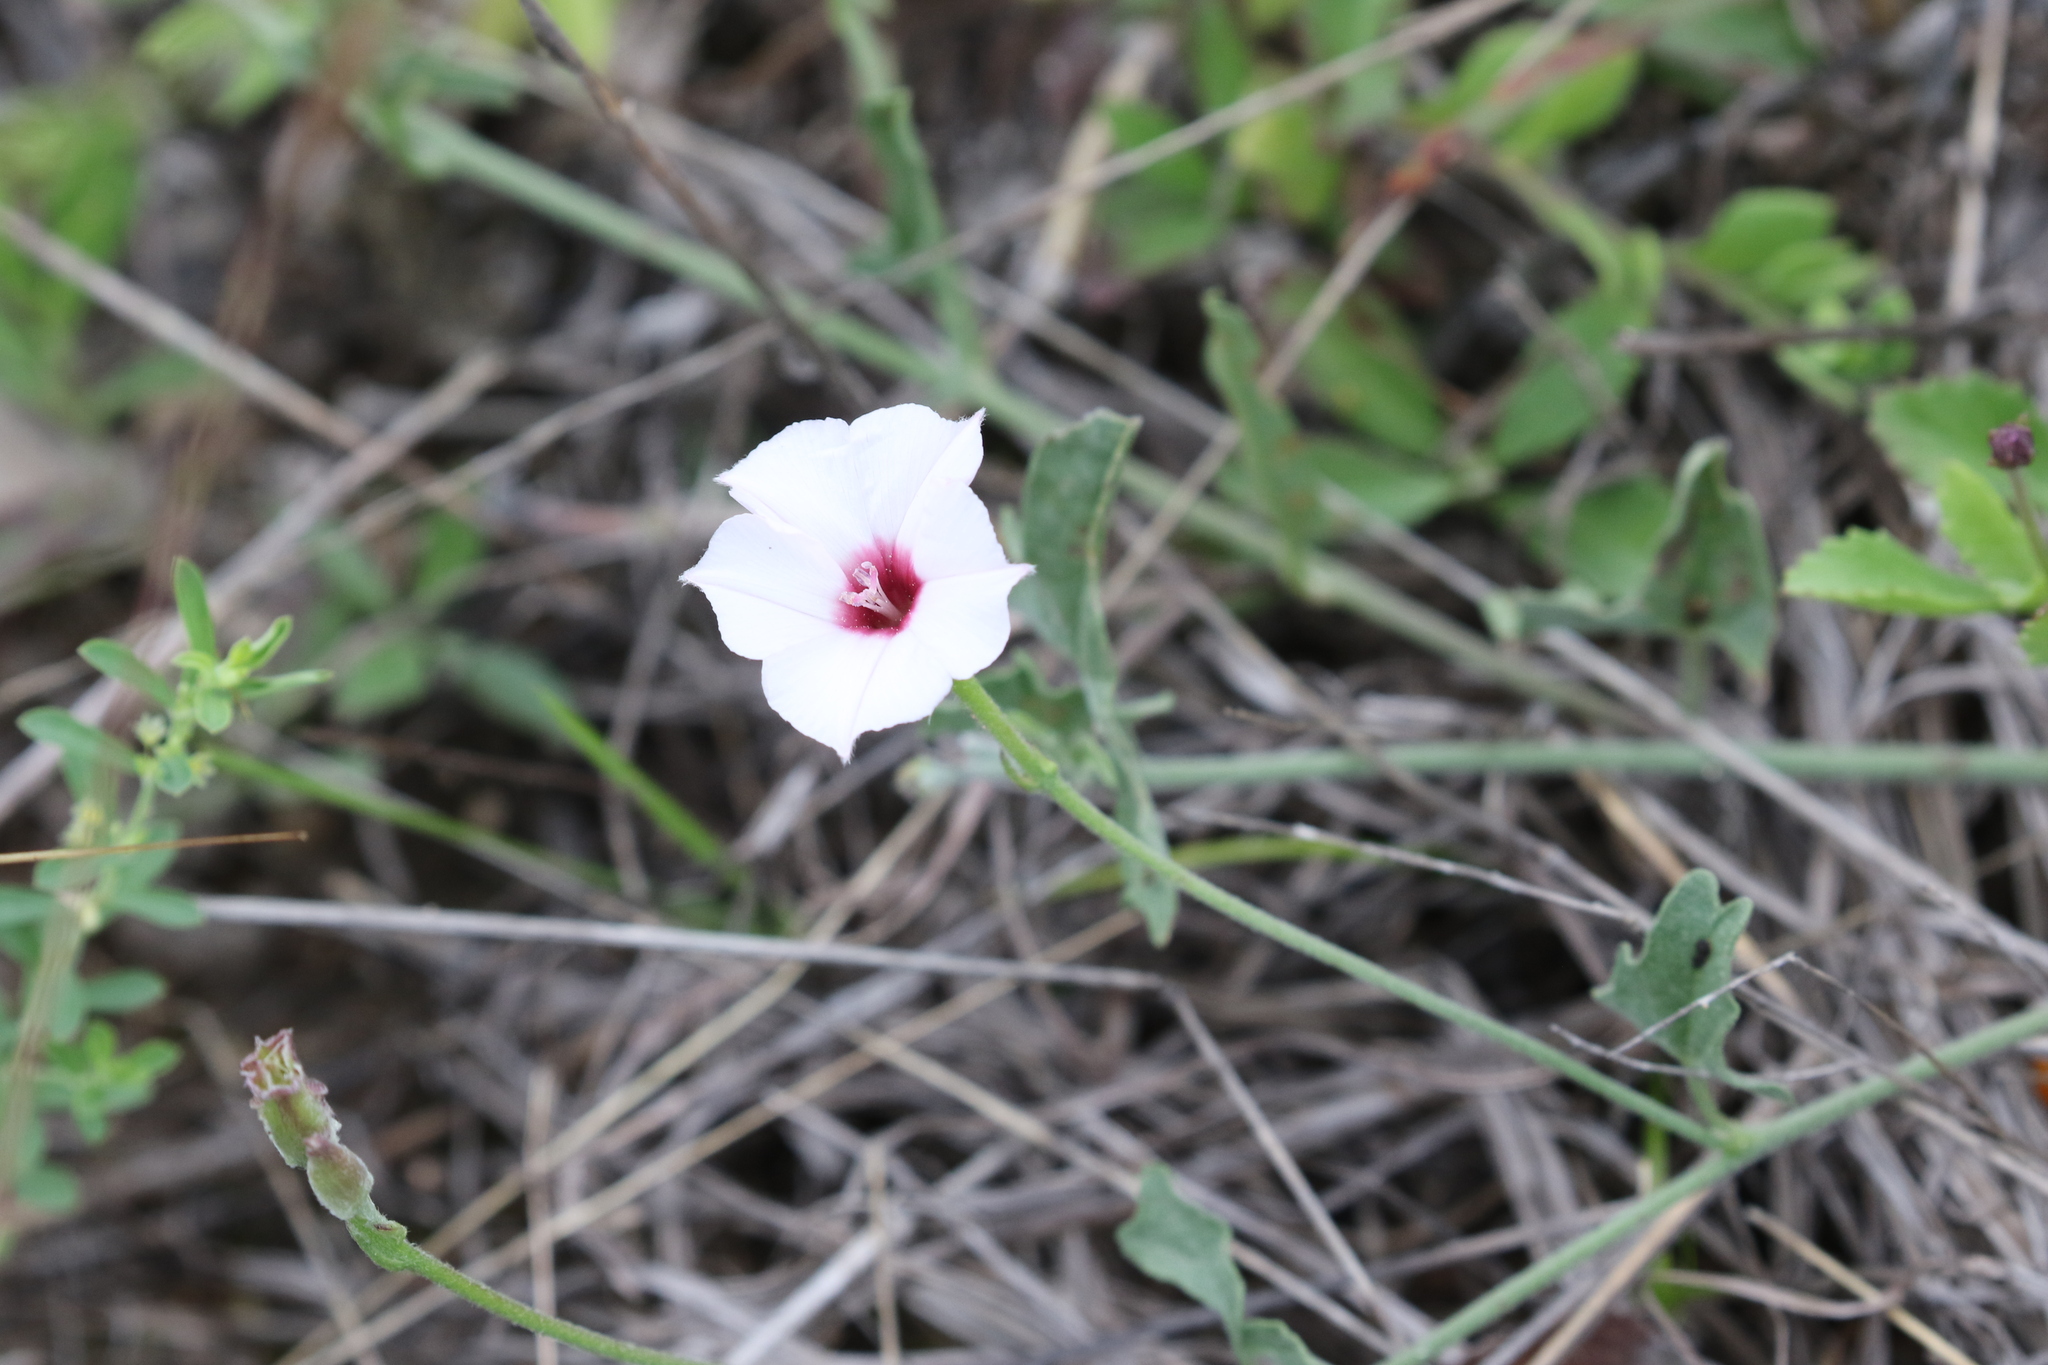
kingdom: Plantae
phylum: Tracheophyta
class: Magnoliopsida
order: Solanales
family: Convolvulaceae
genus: Convolvulus
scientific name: Convolvulus equitans
